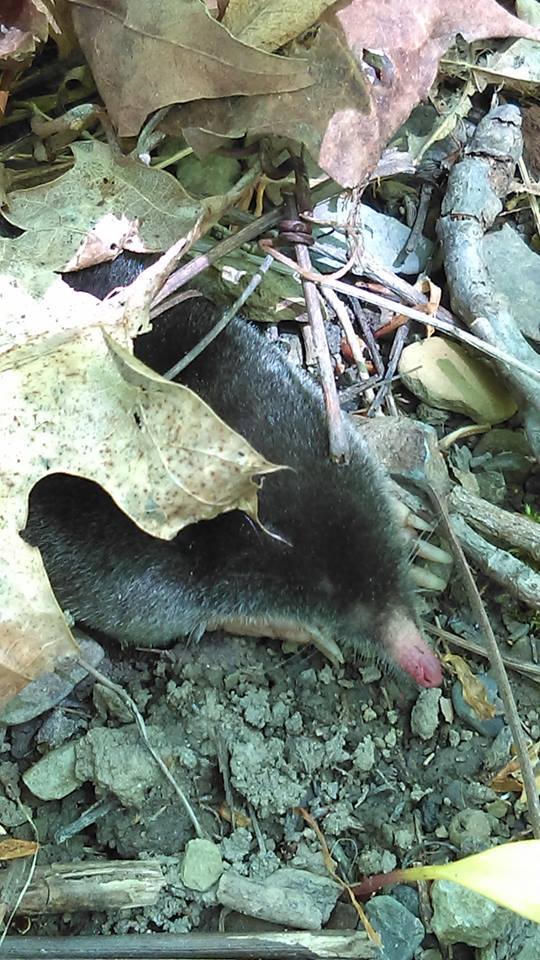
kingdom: Animalia
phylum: Chordata
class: Mammalia
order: Soricomorpha
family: Talpidae
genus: Parascalops
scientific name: Parascalops breweri
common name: Hairy-tailed mole
